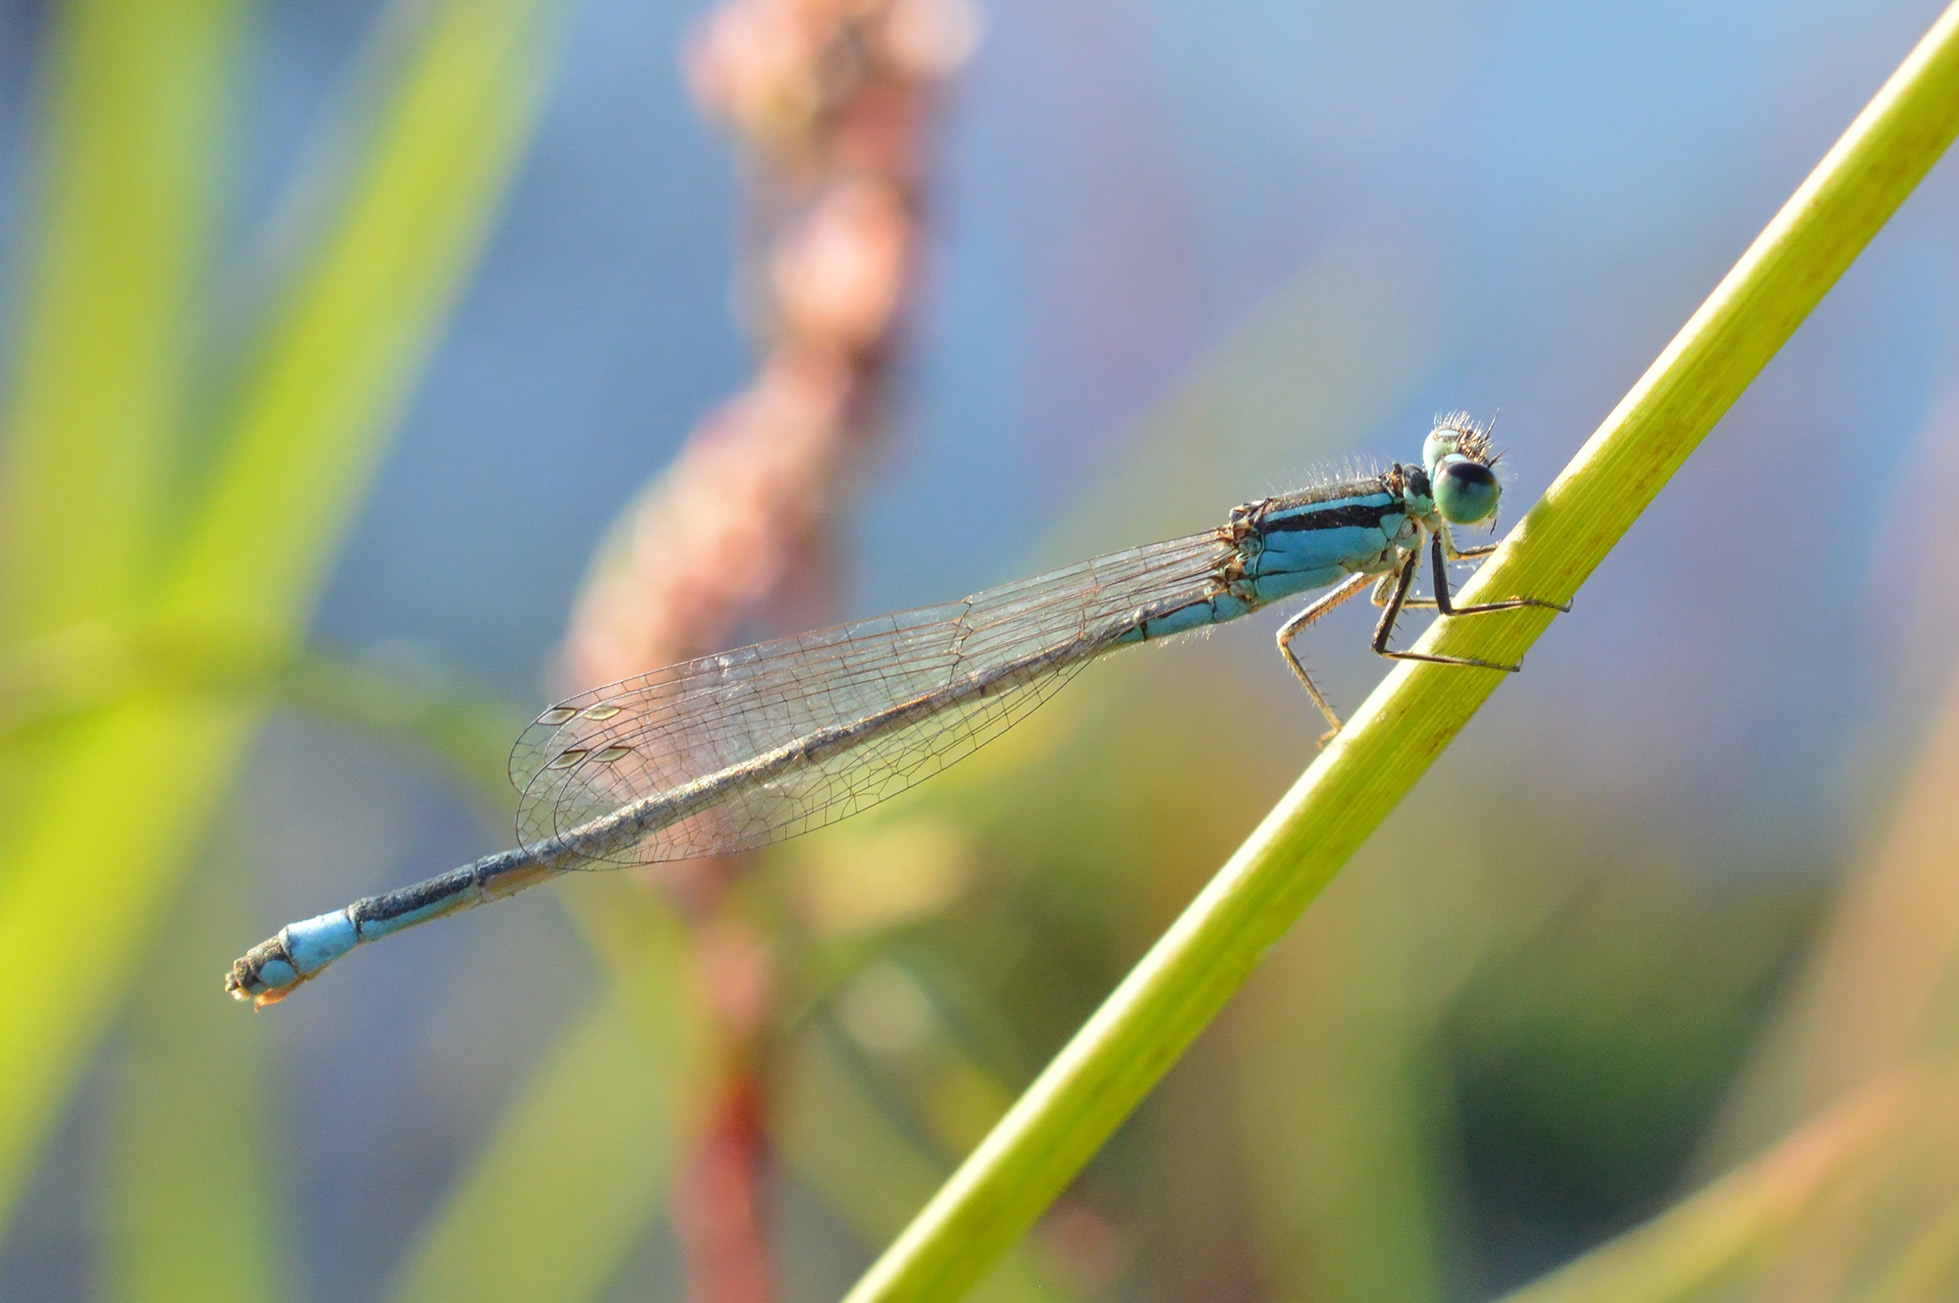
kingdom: Animalia
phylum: Arthropoda
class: Insecta
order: Odonata
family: Coenagrionidae
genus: Ischnura
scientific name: Ischnura elegans
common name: Blue-tailed damselfly
